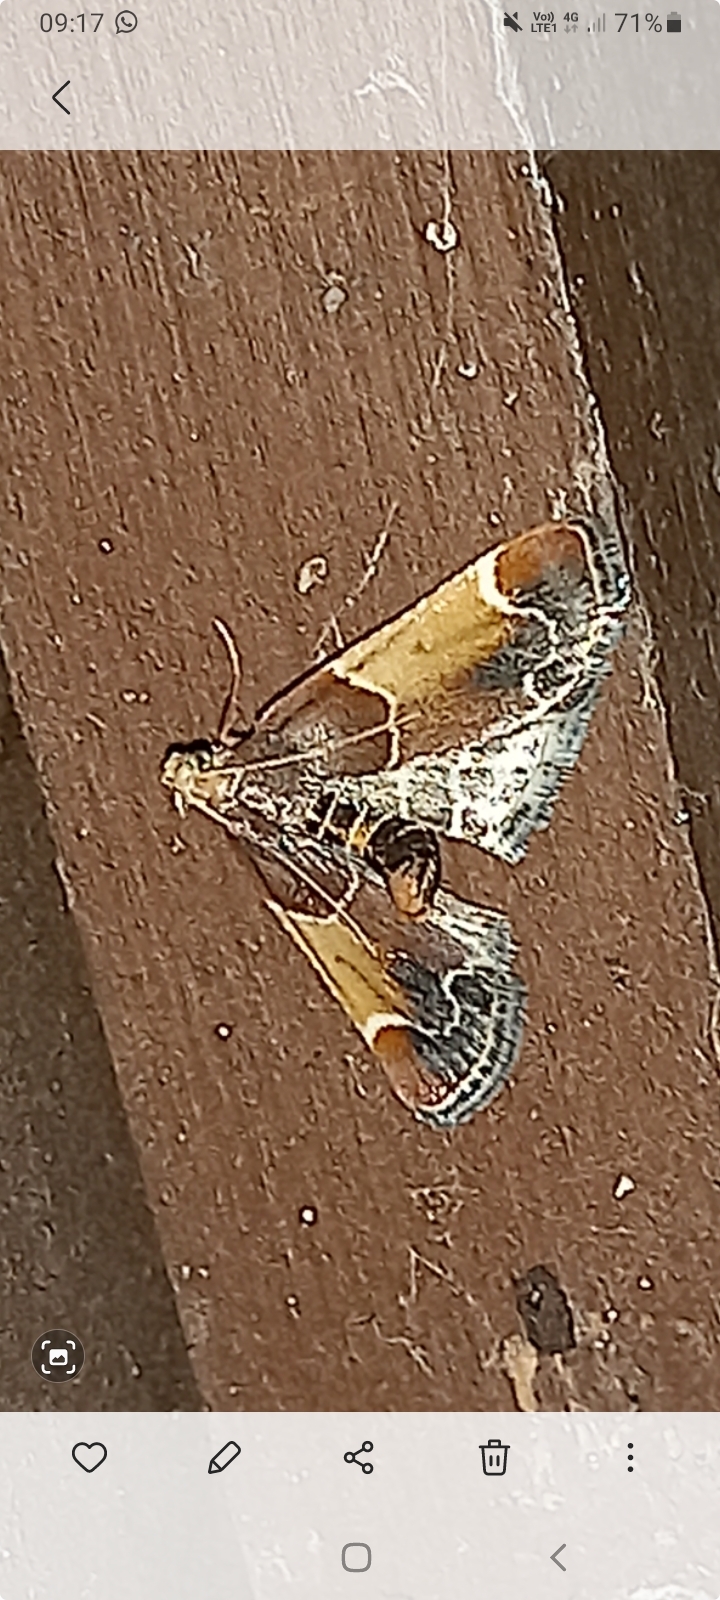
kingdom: Animalia
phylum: Arthropoda
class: Insecta
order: Lepidoptera
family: Pyralidae
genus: Pyralis
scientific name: Pyralis farinalis
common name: Meal moth
